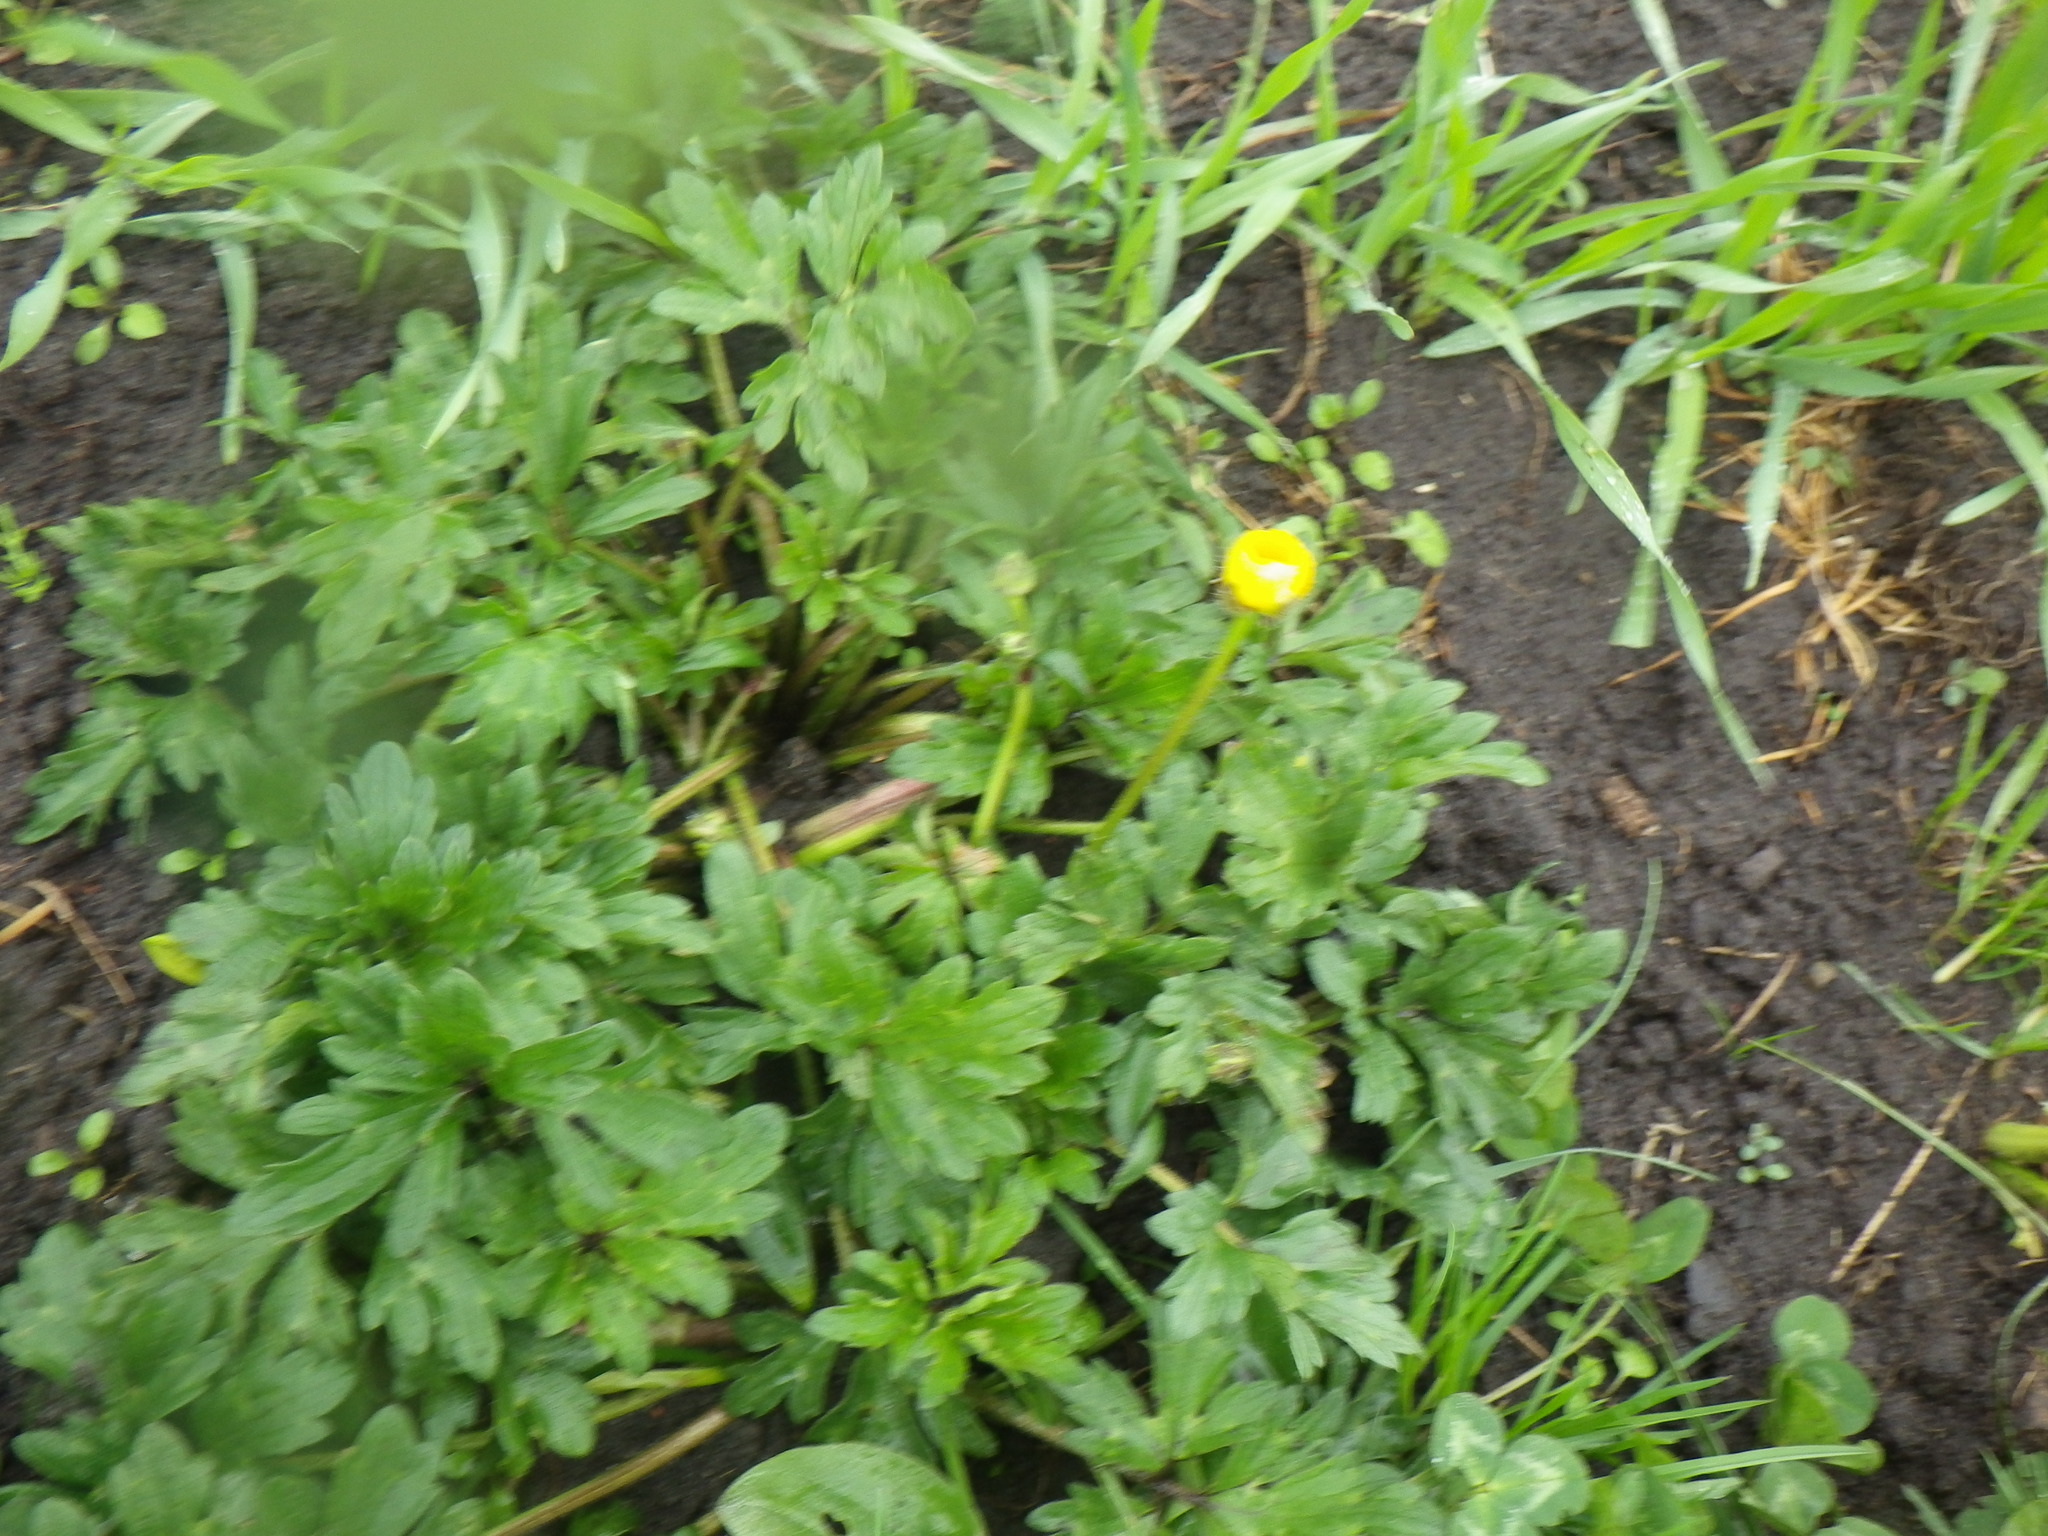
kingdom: Plantae
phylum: Tracheophyta
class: Magnoliopsida
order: Ranunculales
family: Ranunculaceae
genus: Ranunculus
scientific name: Ranunculus repens
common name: Creeping buttercup
